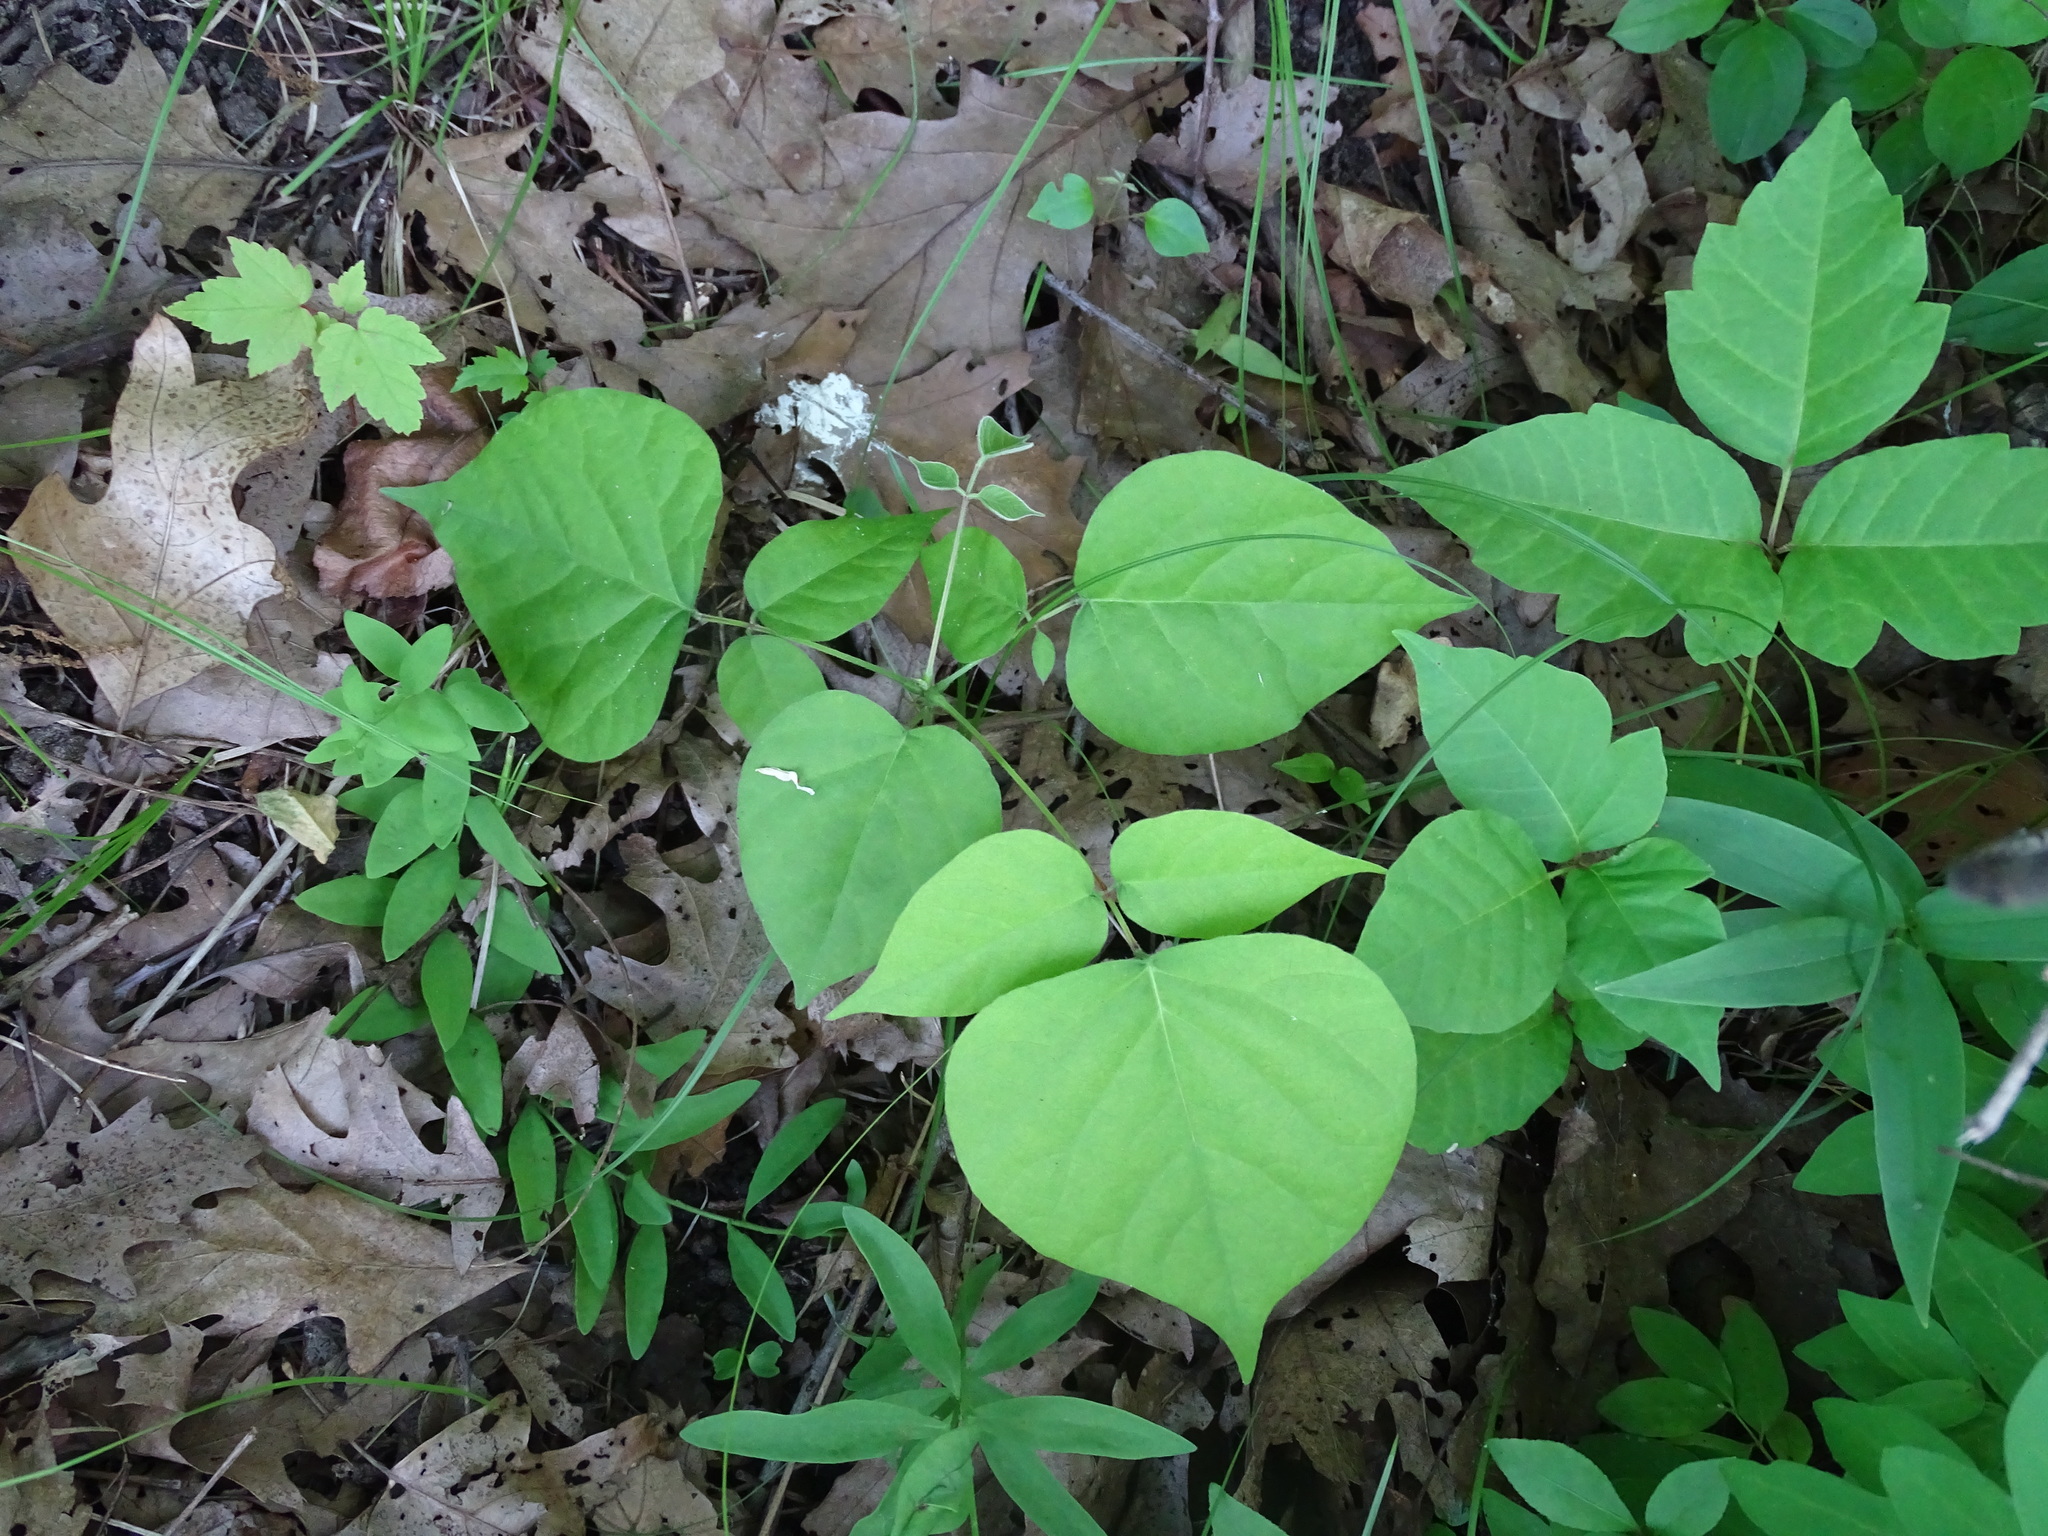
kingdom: Plantae
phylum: Tracheophyta
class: Magnoliopsida
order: Fabales
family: Fabaceae
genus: Hylodesmum
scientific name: Hylodesmum glutinosum
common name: Clustered-leaved tick-trefoil
